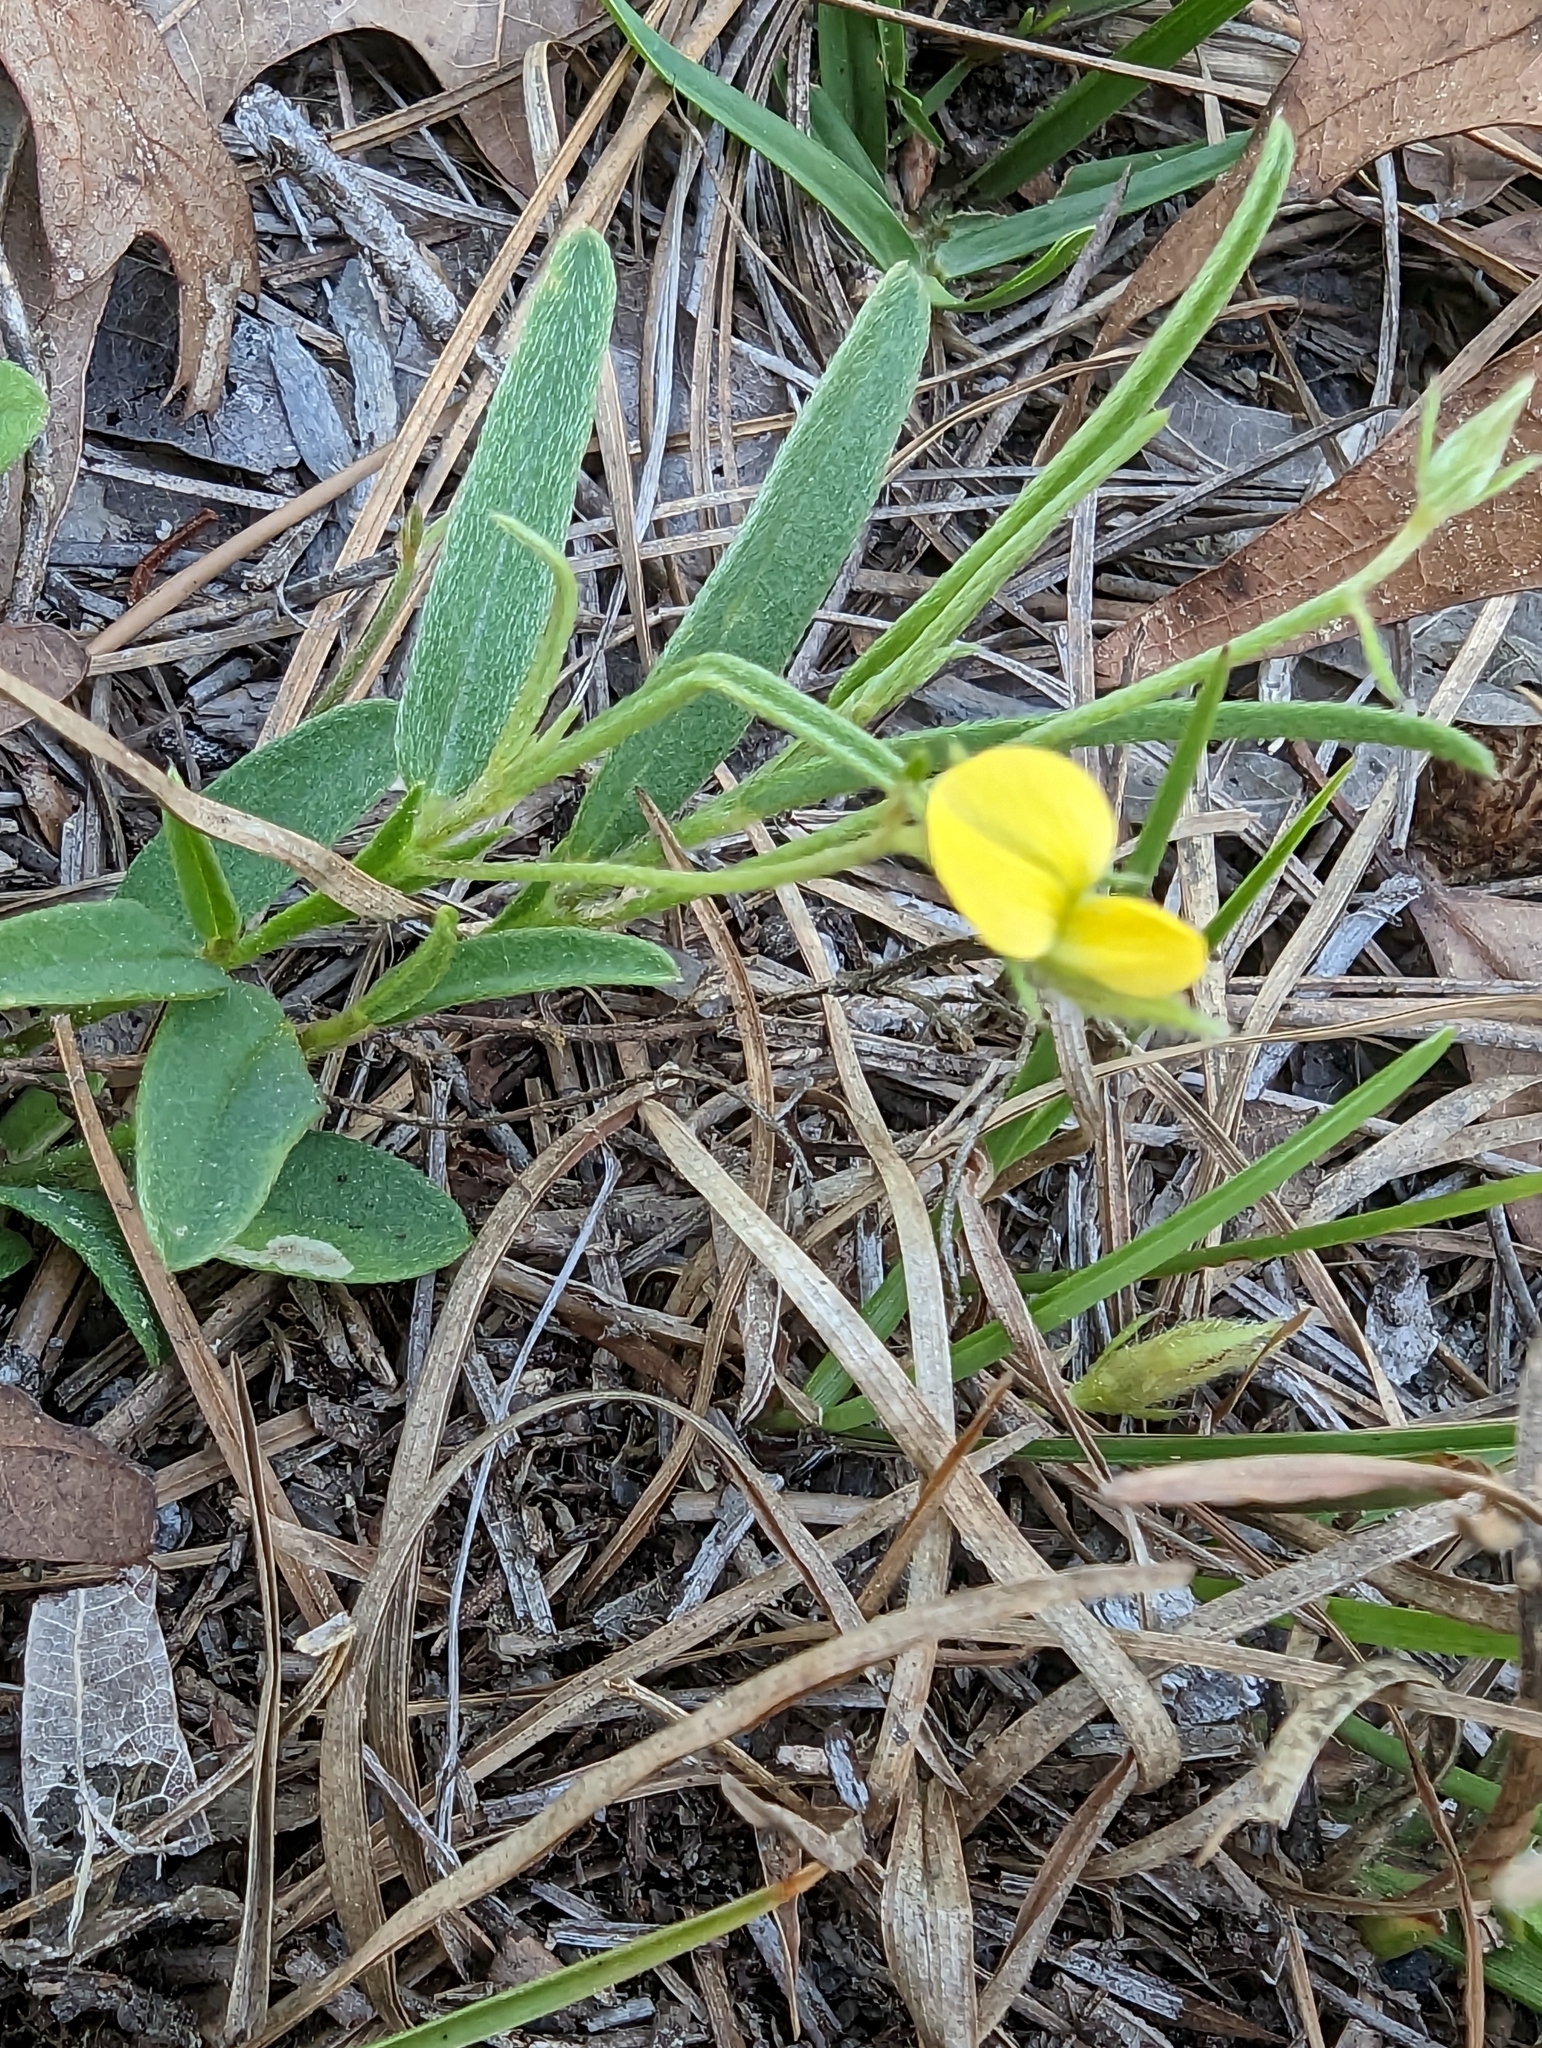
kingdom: Plantae
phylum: Tracheophyta
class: Magnoliopsida
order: Fabales
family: Fabaceae
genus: Crotalaria
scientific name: Crotalaria rotundifolia
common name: Prostrate rattlebox
